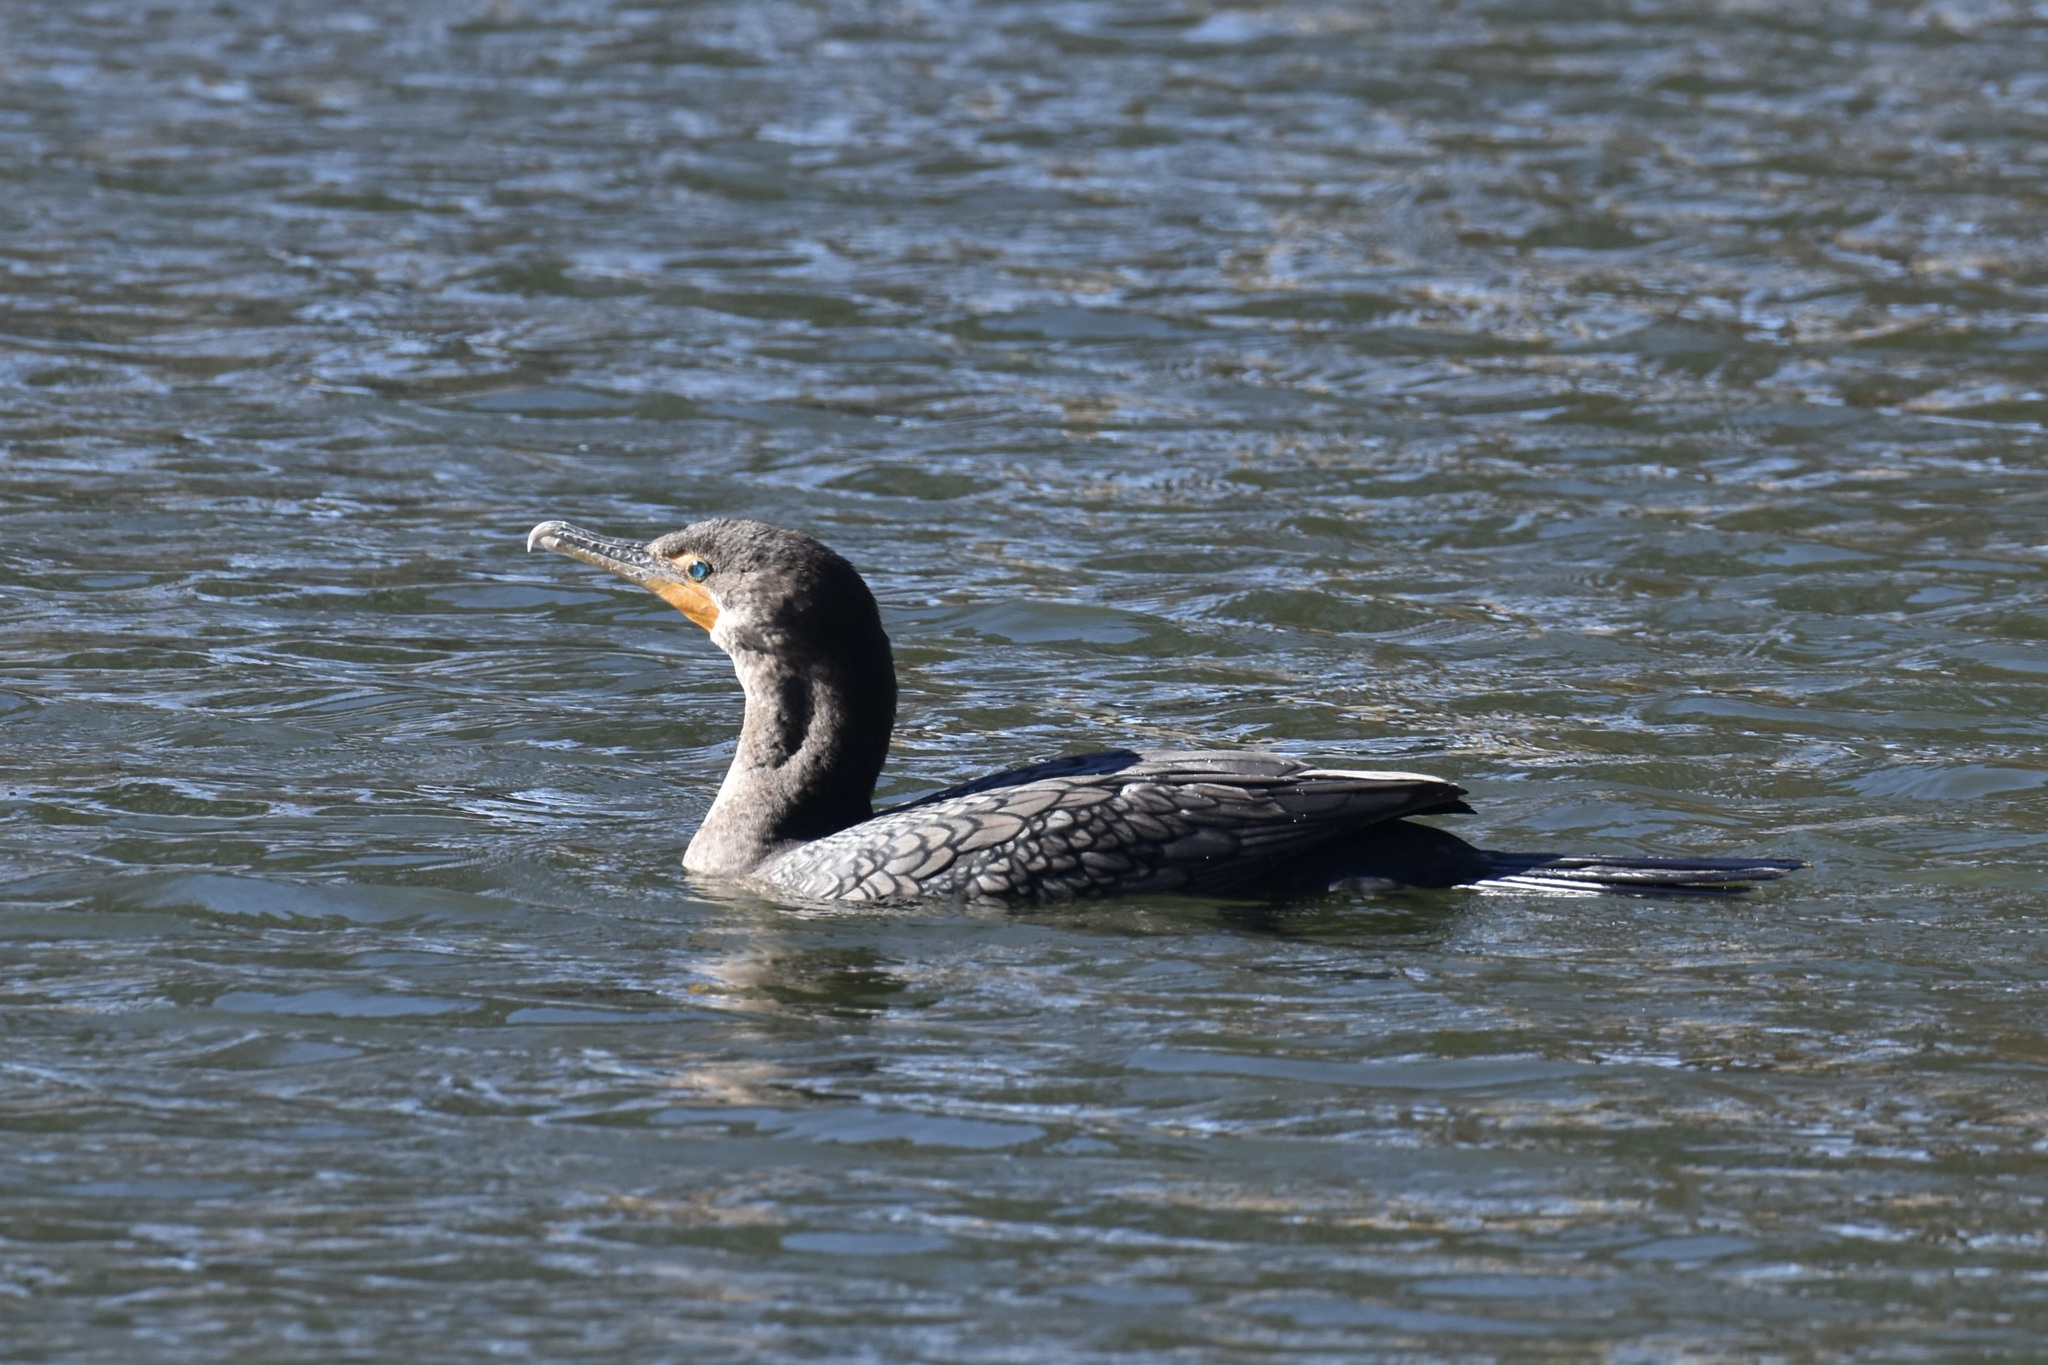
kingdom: Animalia
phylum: Chordata
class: Aves
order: Suliformes
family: Phalacrocoracidae
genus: Phalacrocorax
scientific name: Phalacrocorax auritus
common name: Double-crested cormorant
